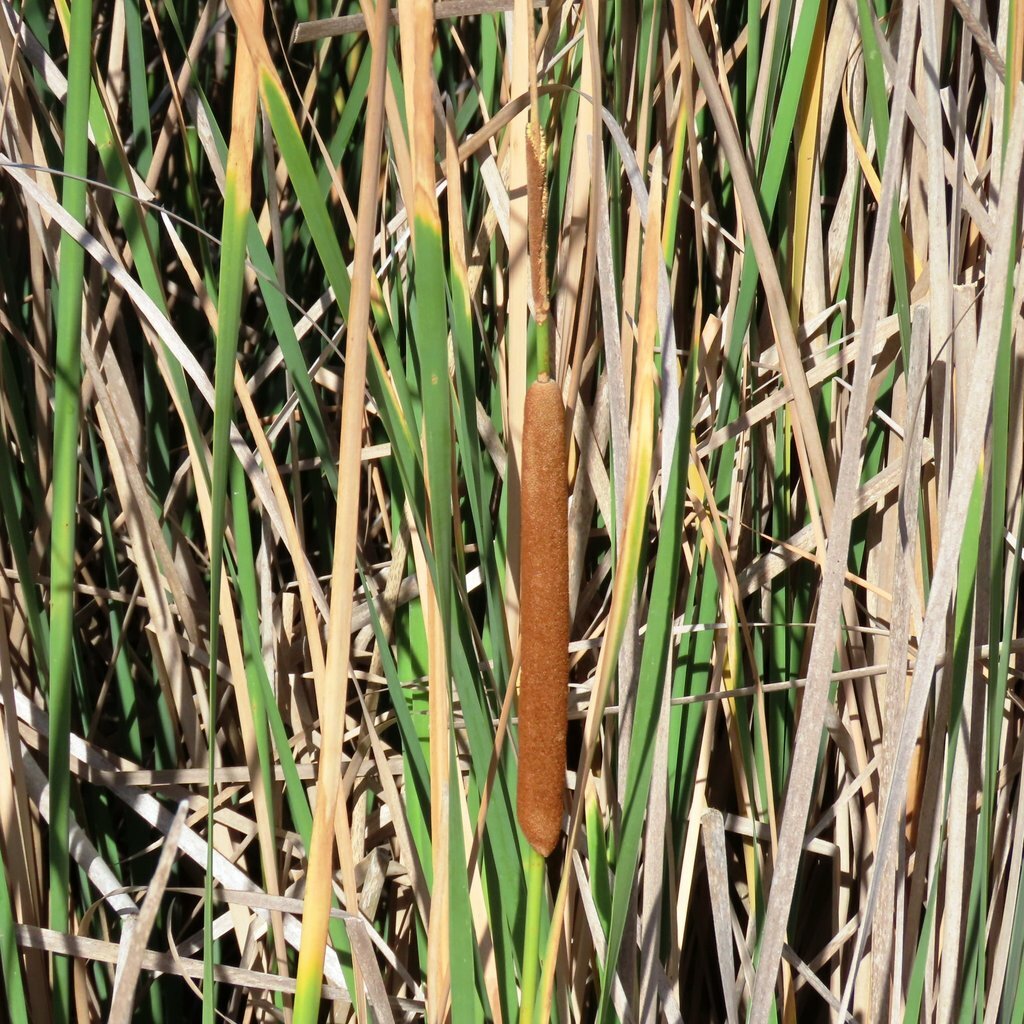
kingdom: Plantae
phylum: Tracheophyta
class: Liliopsida
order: Poales
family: Typhaceae
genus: Typha
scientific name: Typha domingensis
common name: Southern cattail
